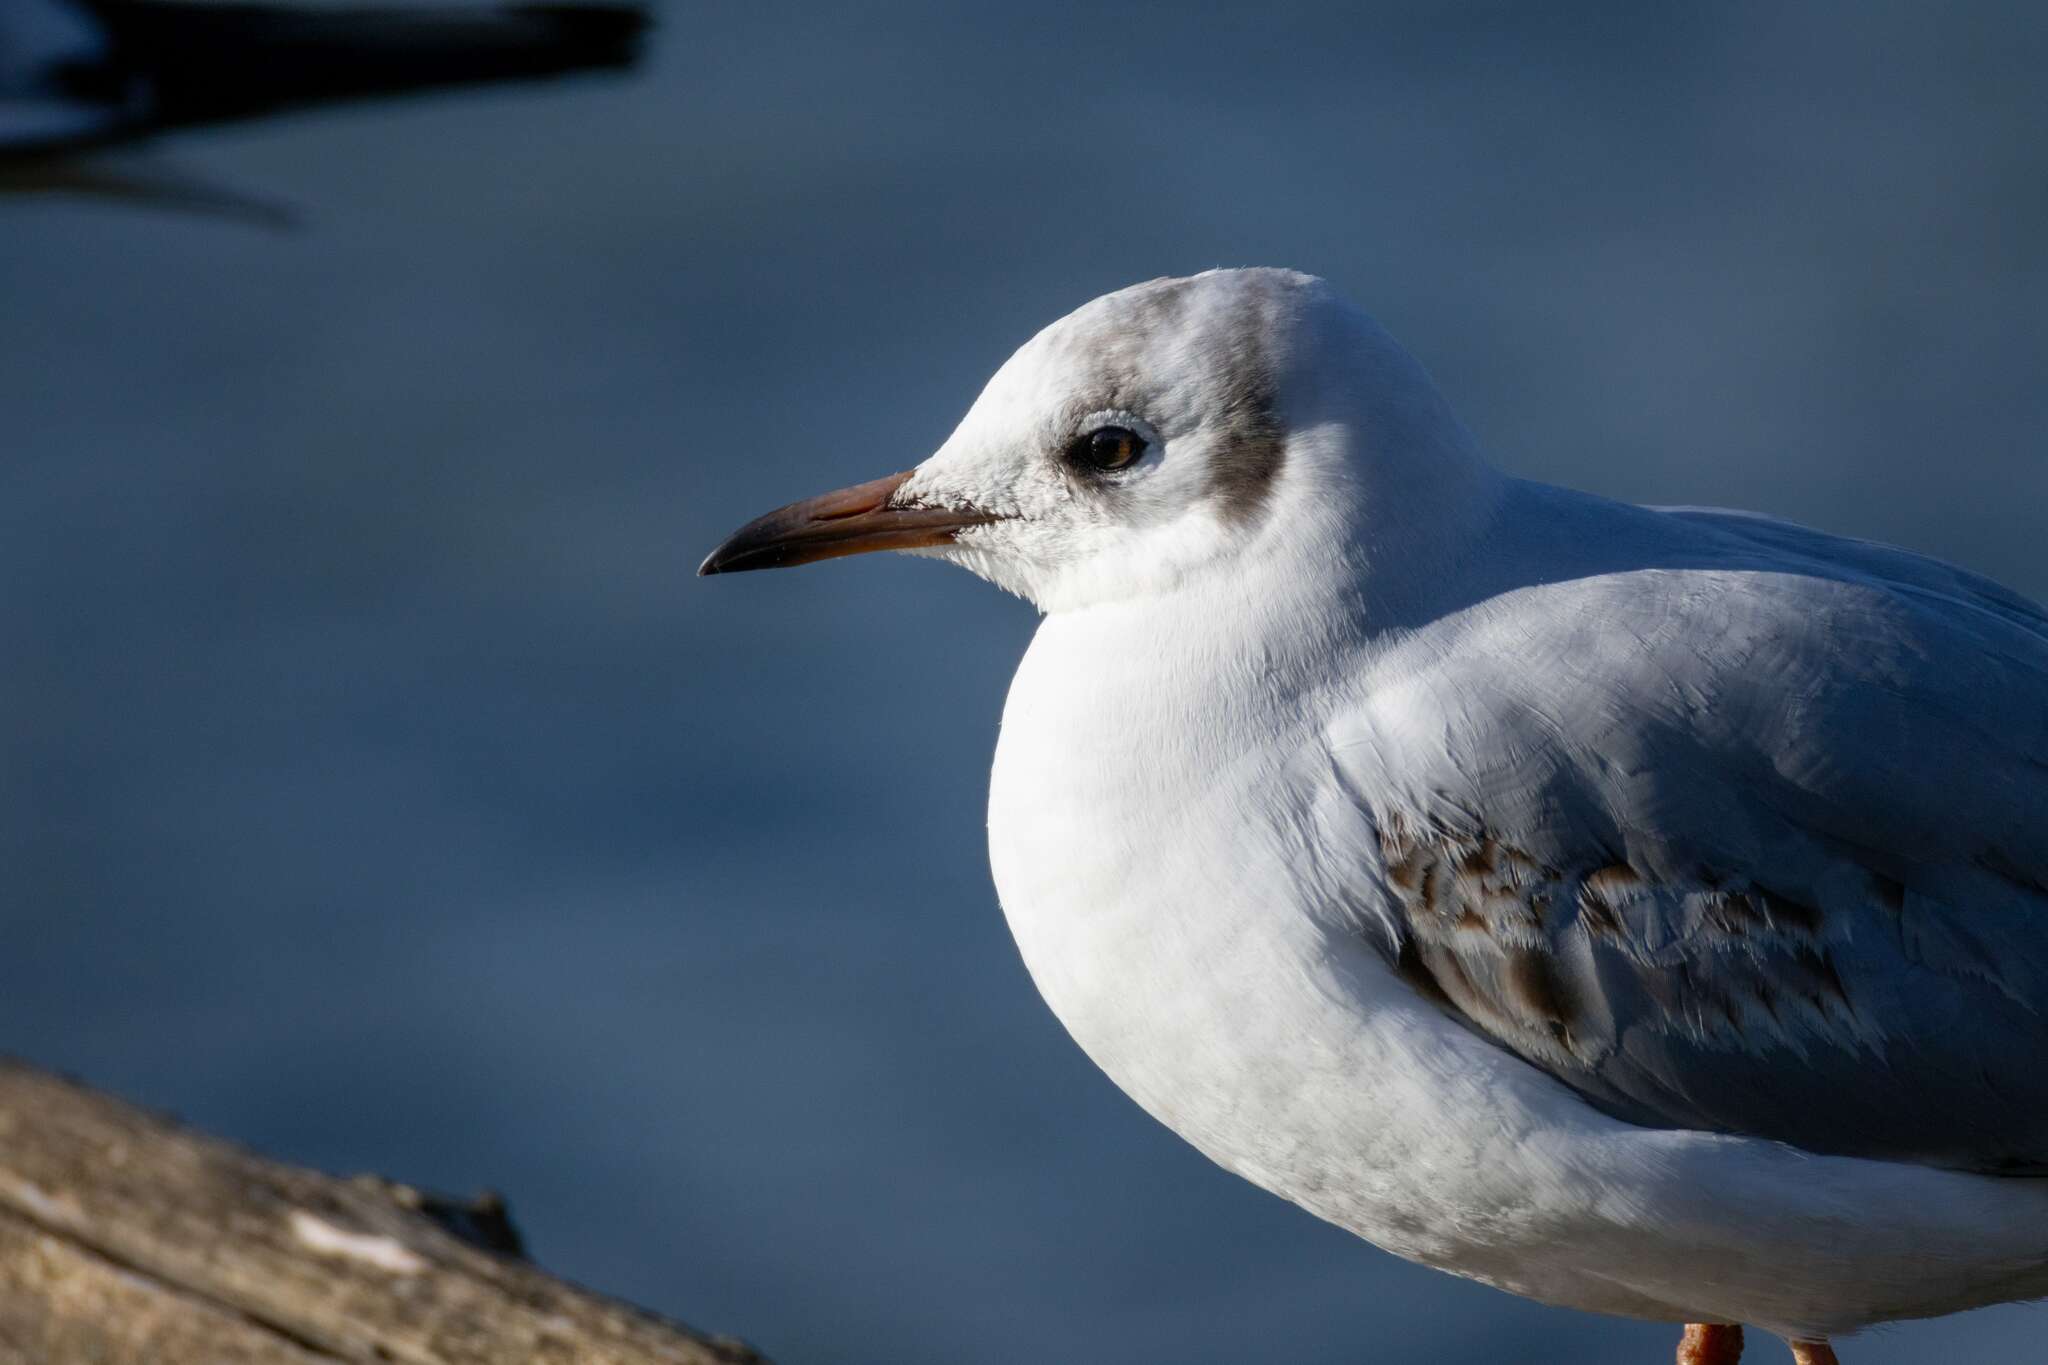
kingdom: Animalia
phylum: Chordata
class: Aves
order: Charadriiformes
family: Laridae
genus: Chroicocephalus
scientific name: Chroicocephalus ridibundus
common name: Black-headed gull
